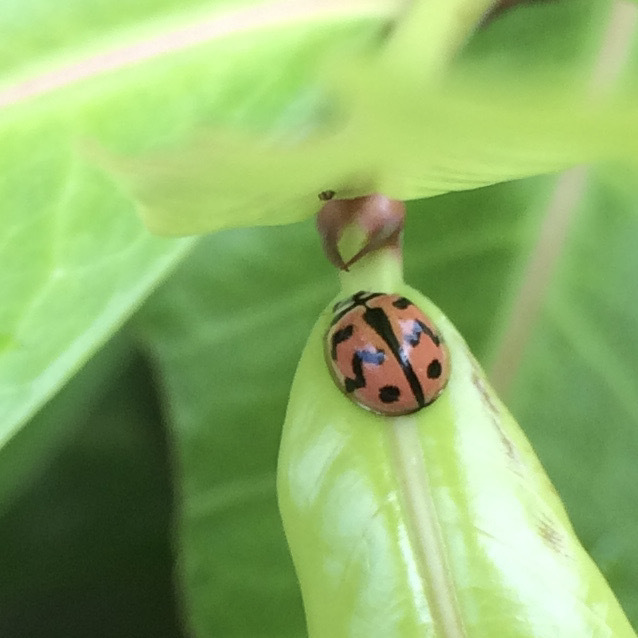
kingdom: Animalia
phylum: Arthropoda
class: Insecta
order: Coleoptera
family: Coccinellidae
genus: Cheilomenes
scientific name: Cheilomenes sexmaculata
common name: Ladybird beetle
